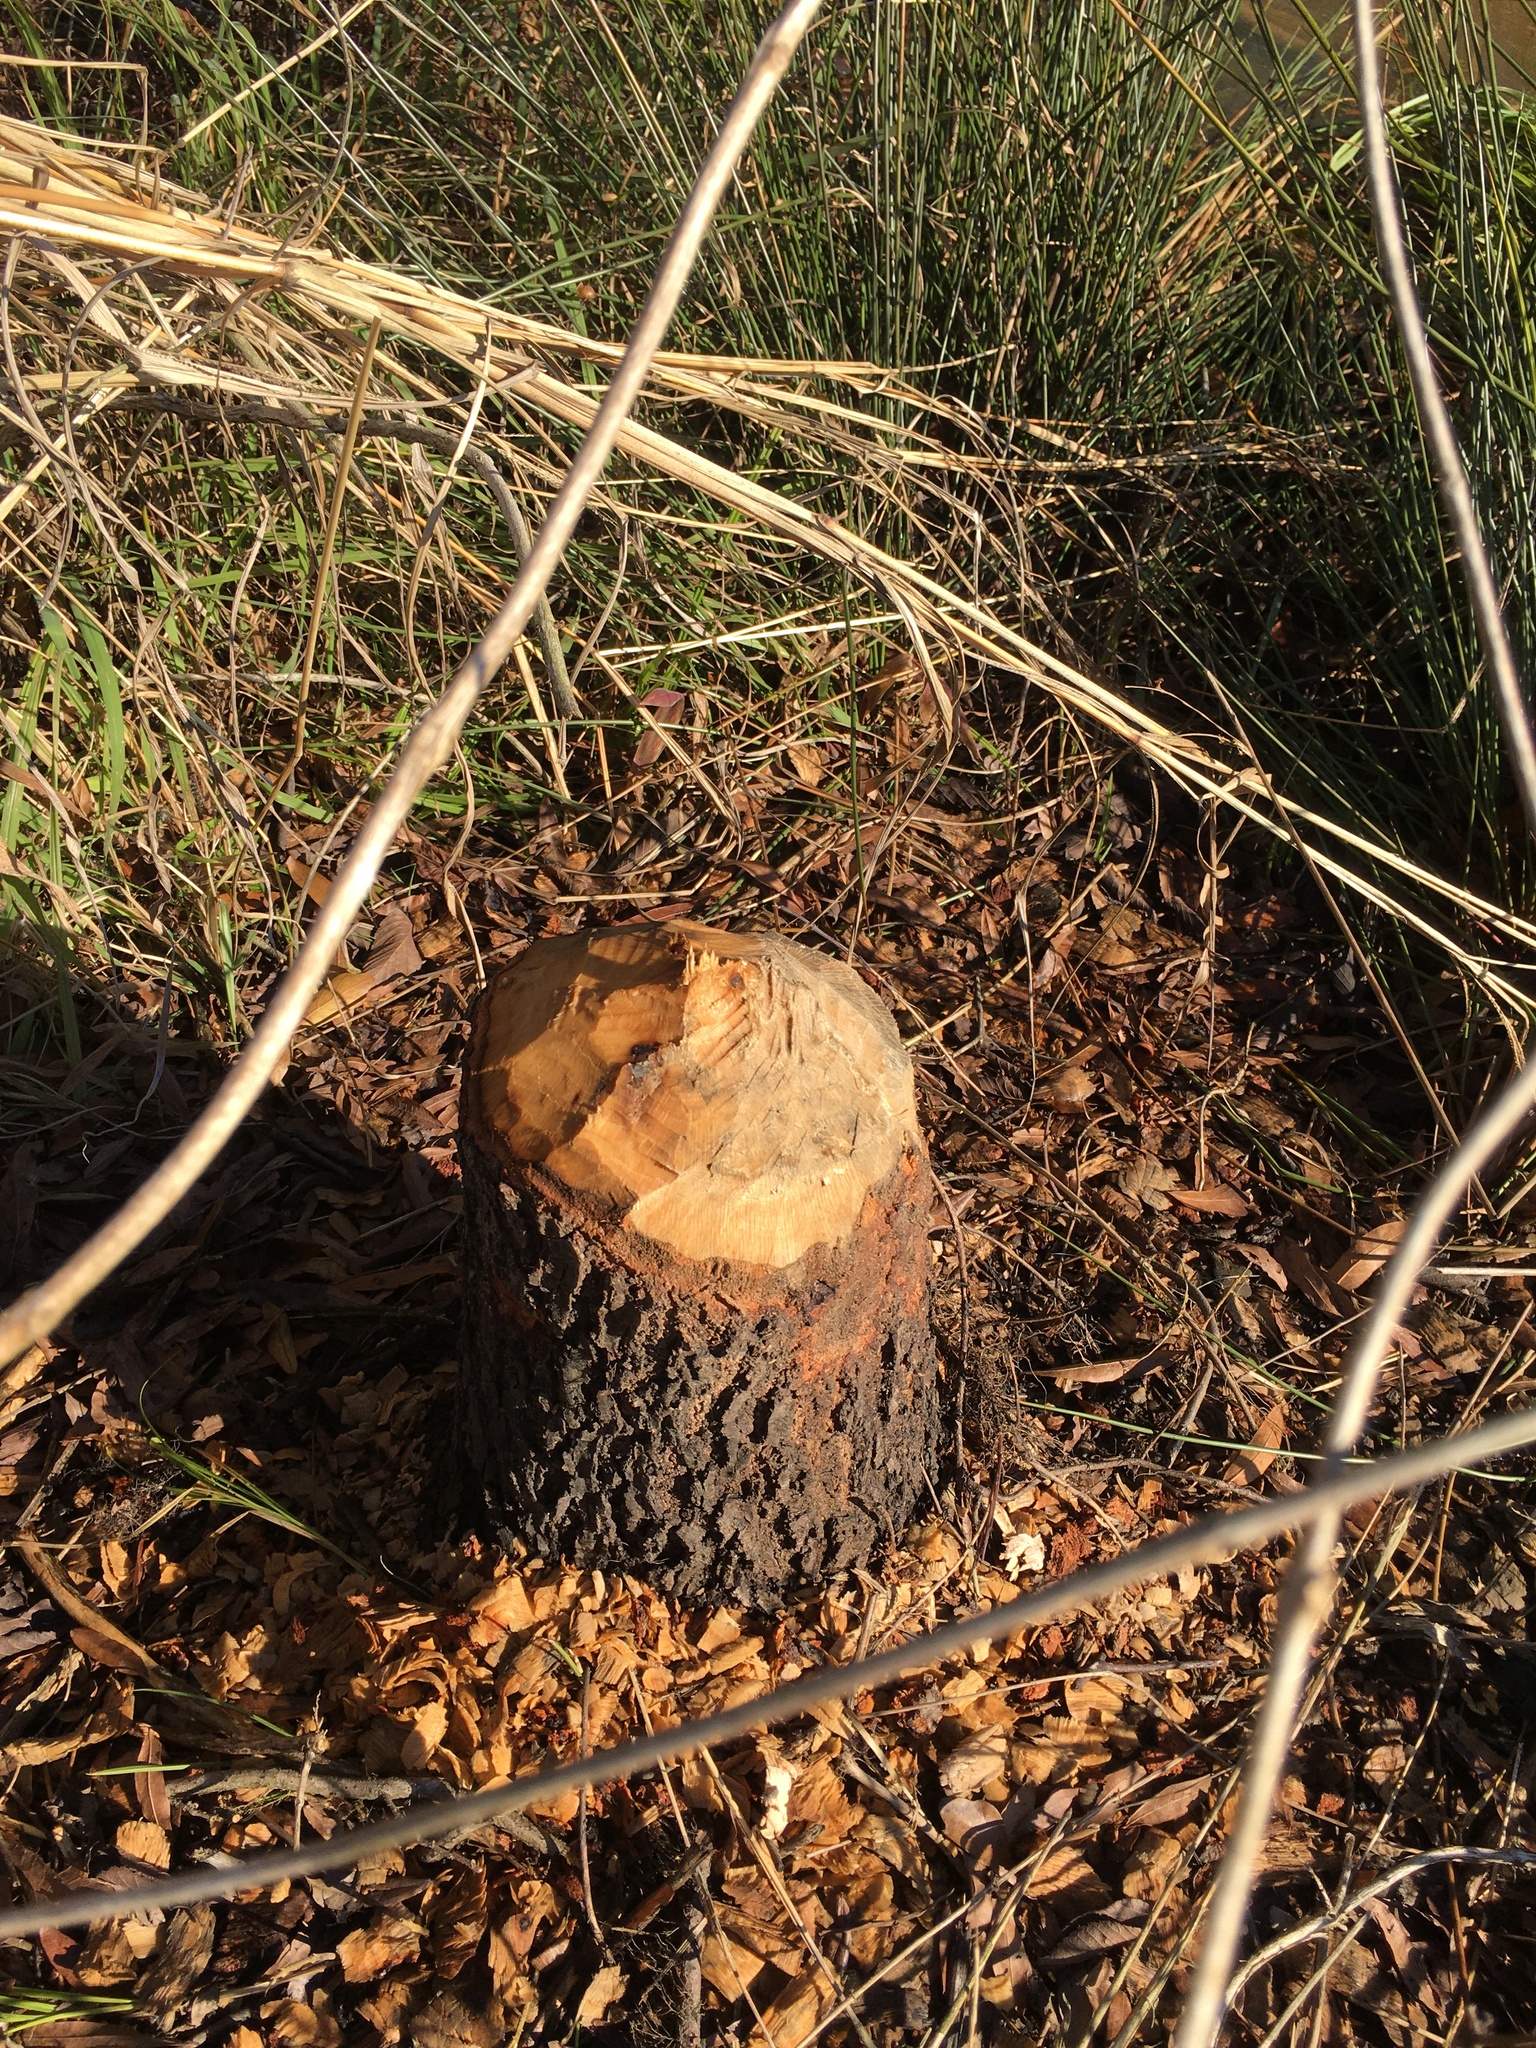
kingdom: Animalia
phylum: Chordata
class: Mammalia
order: Rodentia
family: Castoridae
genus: Castor
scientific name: Castor canadensis
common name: American beaver
